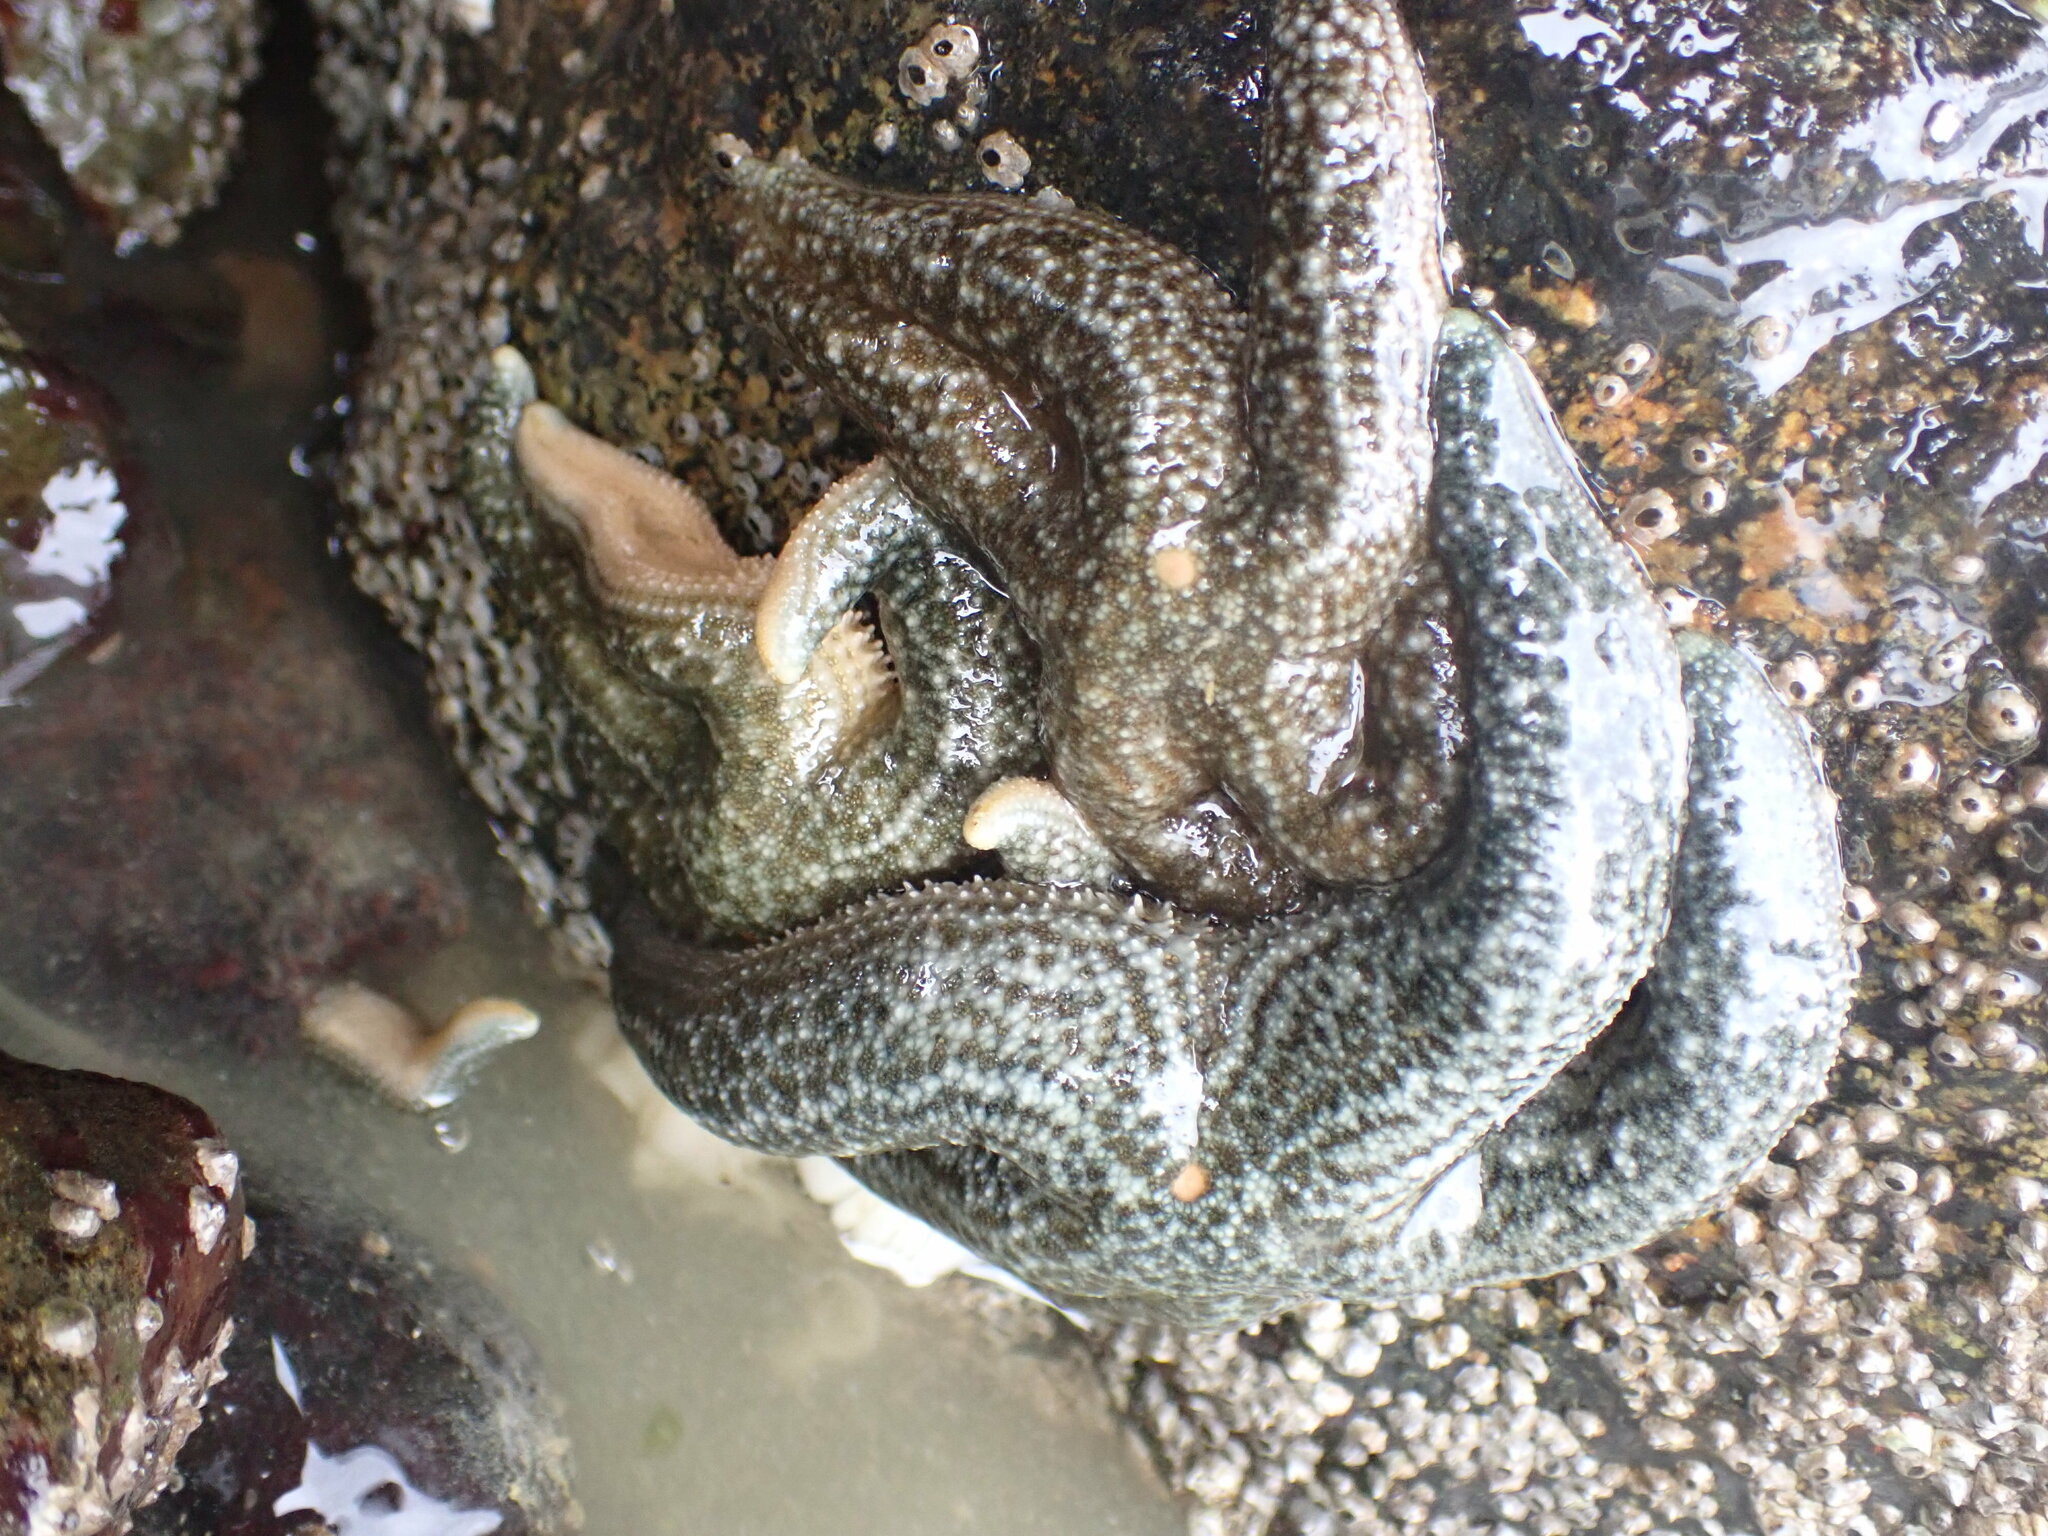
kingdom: Animalia
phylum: Echinodermata
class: Asteroidea
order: Forcipulatida
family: Asteriidae
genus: Evasterias
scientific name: Evasterias troschelii
